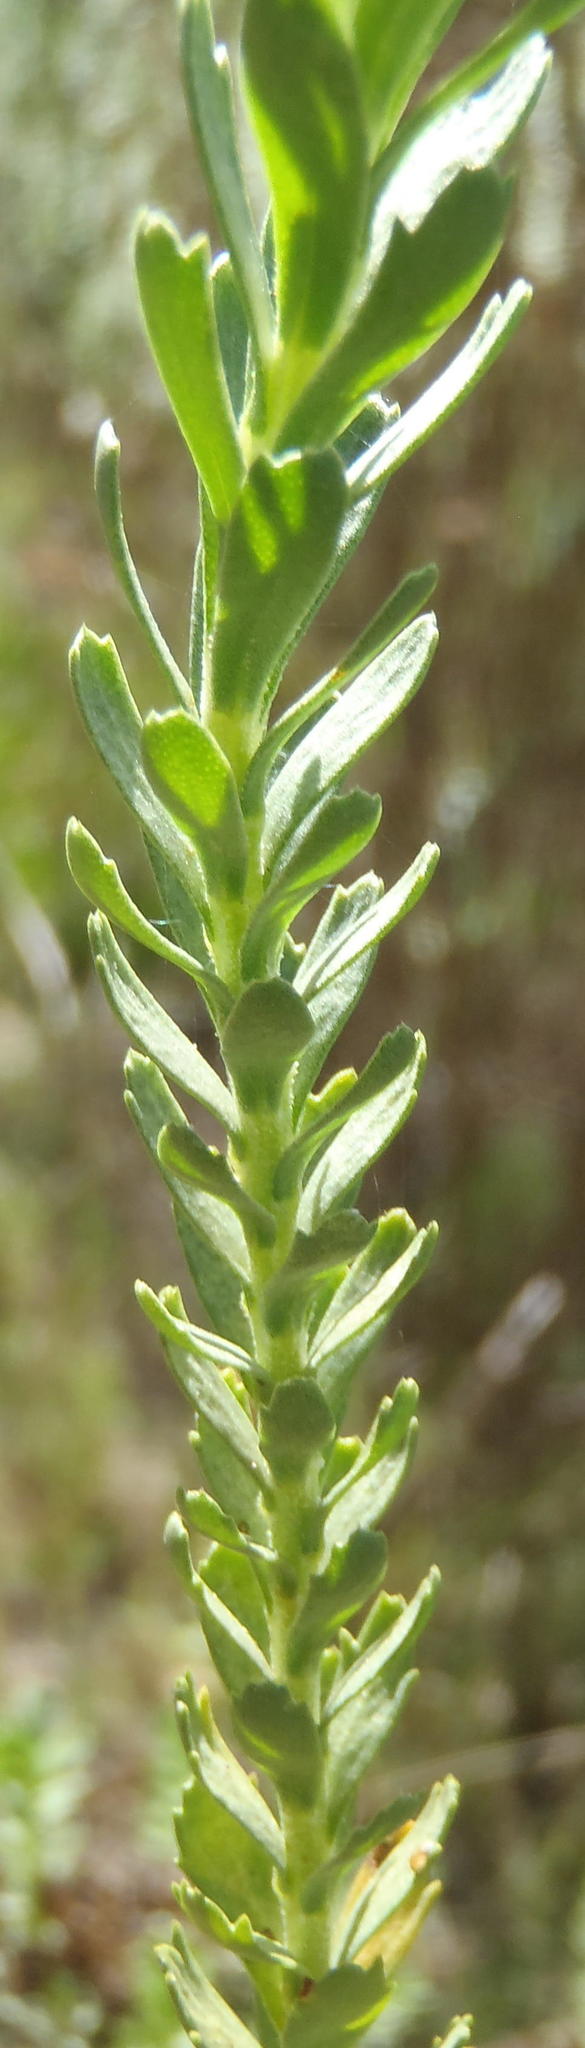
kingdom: Plantae
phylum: Tracheophyta
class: Magnoliopsida
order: Asterales
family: Asteraceae
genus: Athanasia
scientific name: Athanasia trifurcata
